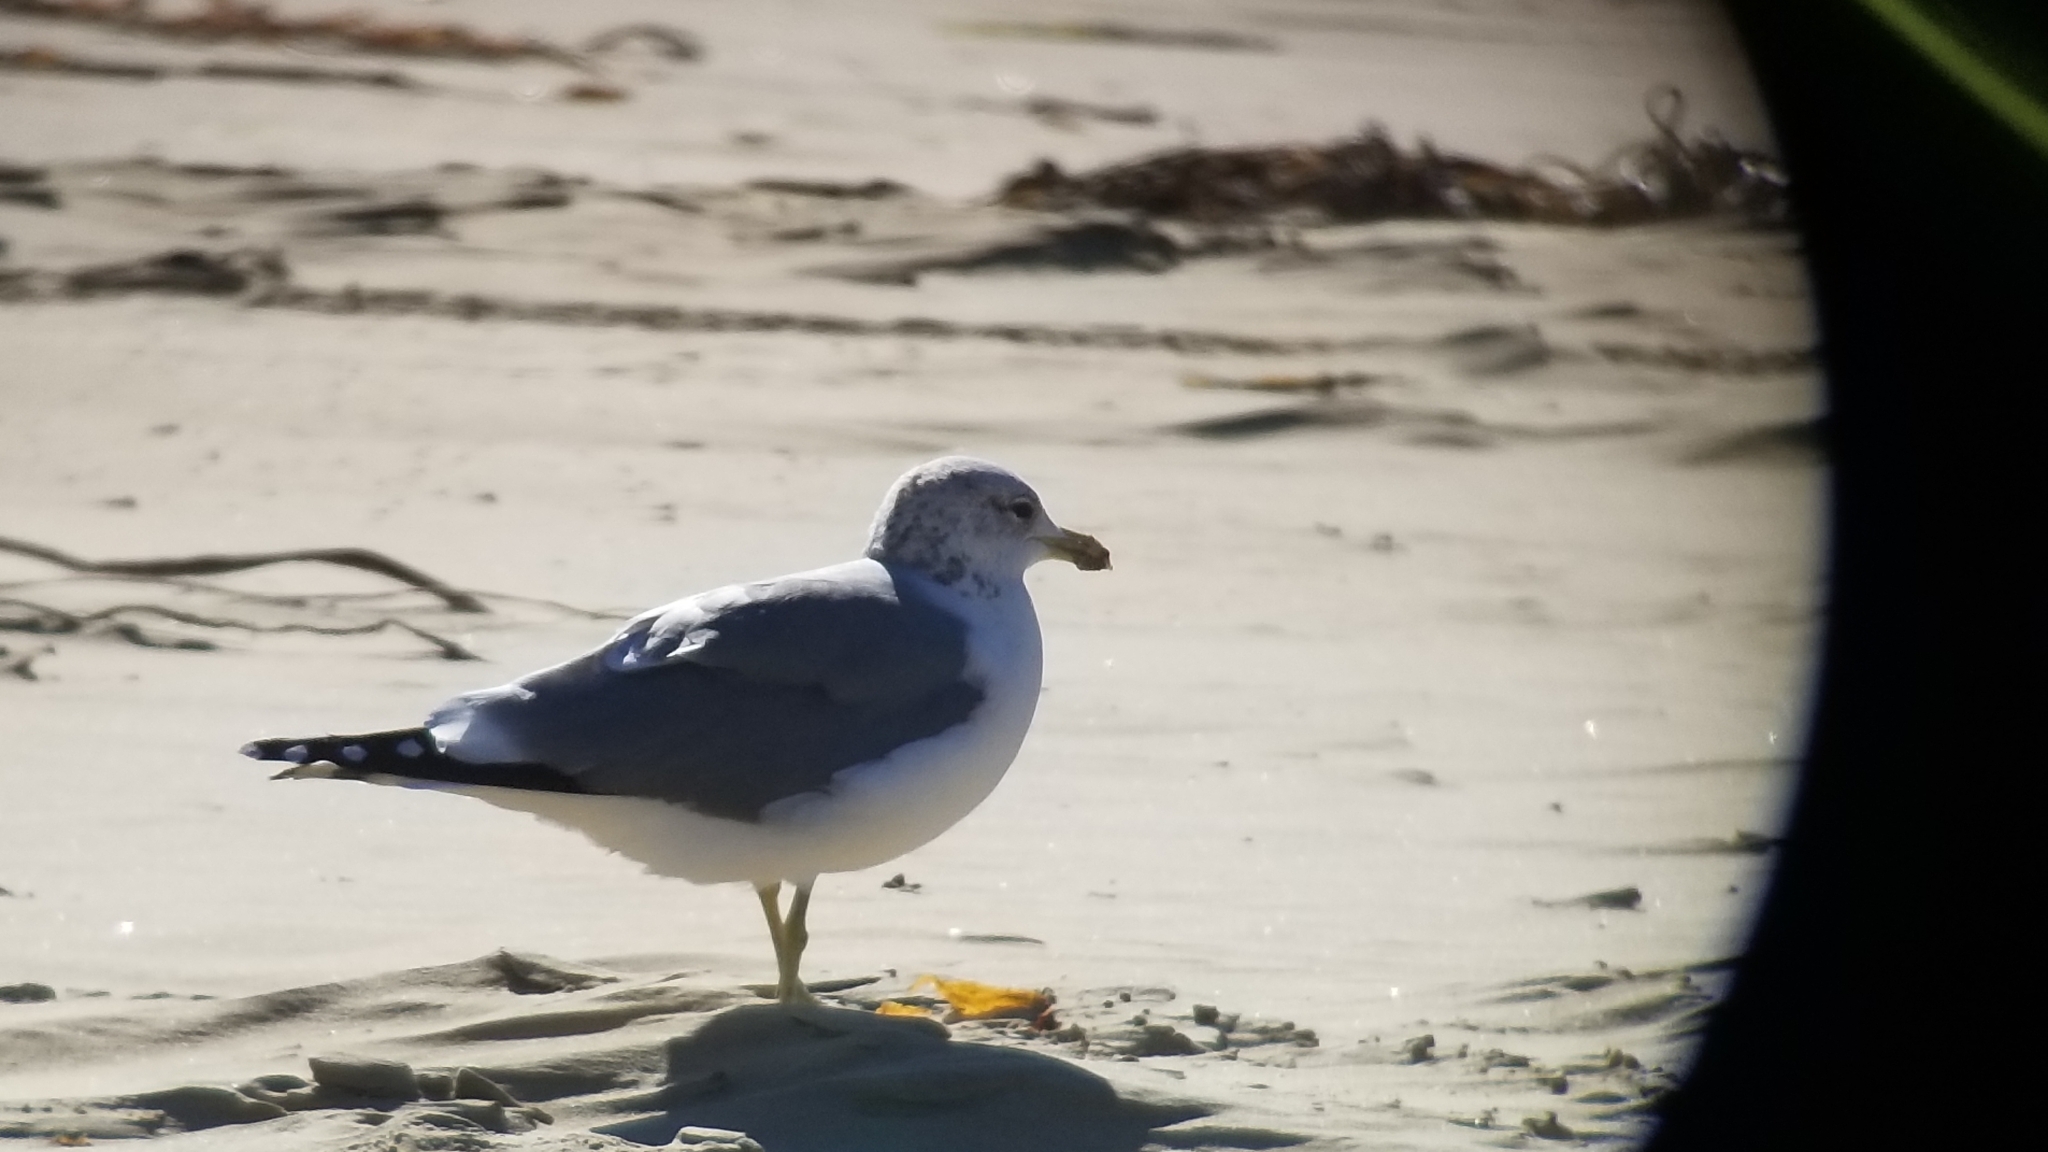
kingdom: Animalia
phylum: Chordata
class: Aves
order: Charadriiformes
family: Laridae
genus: Larus
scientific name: Larus californicus
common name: California gull
